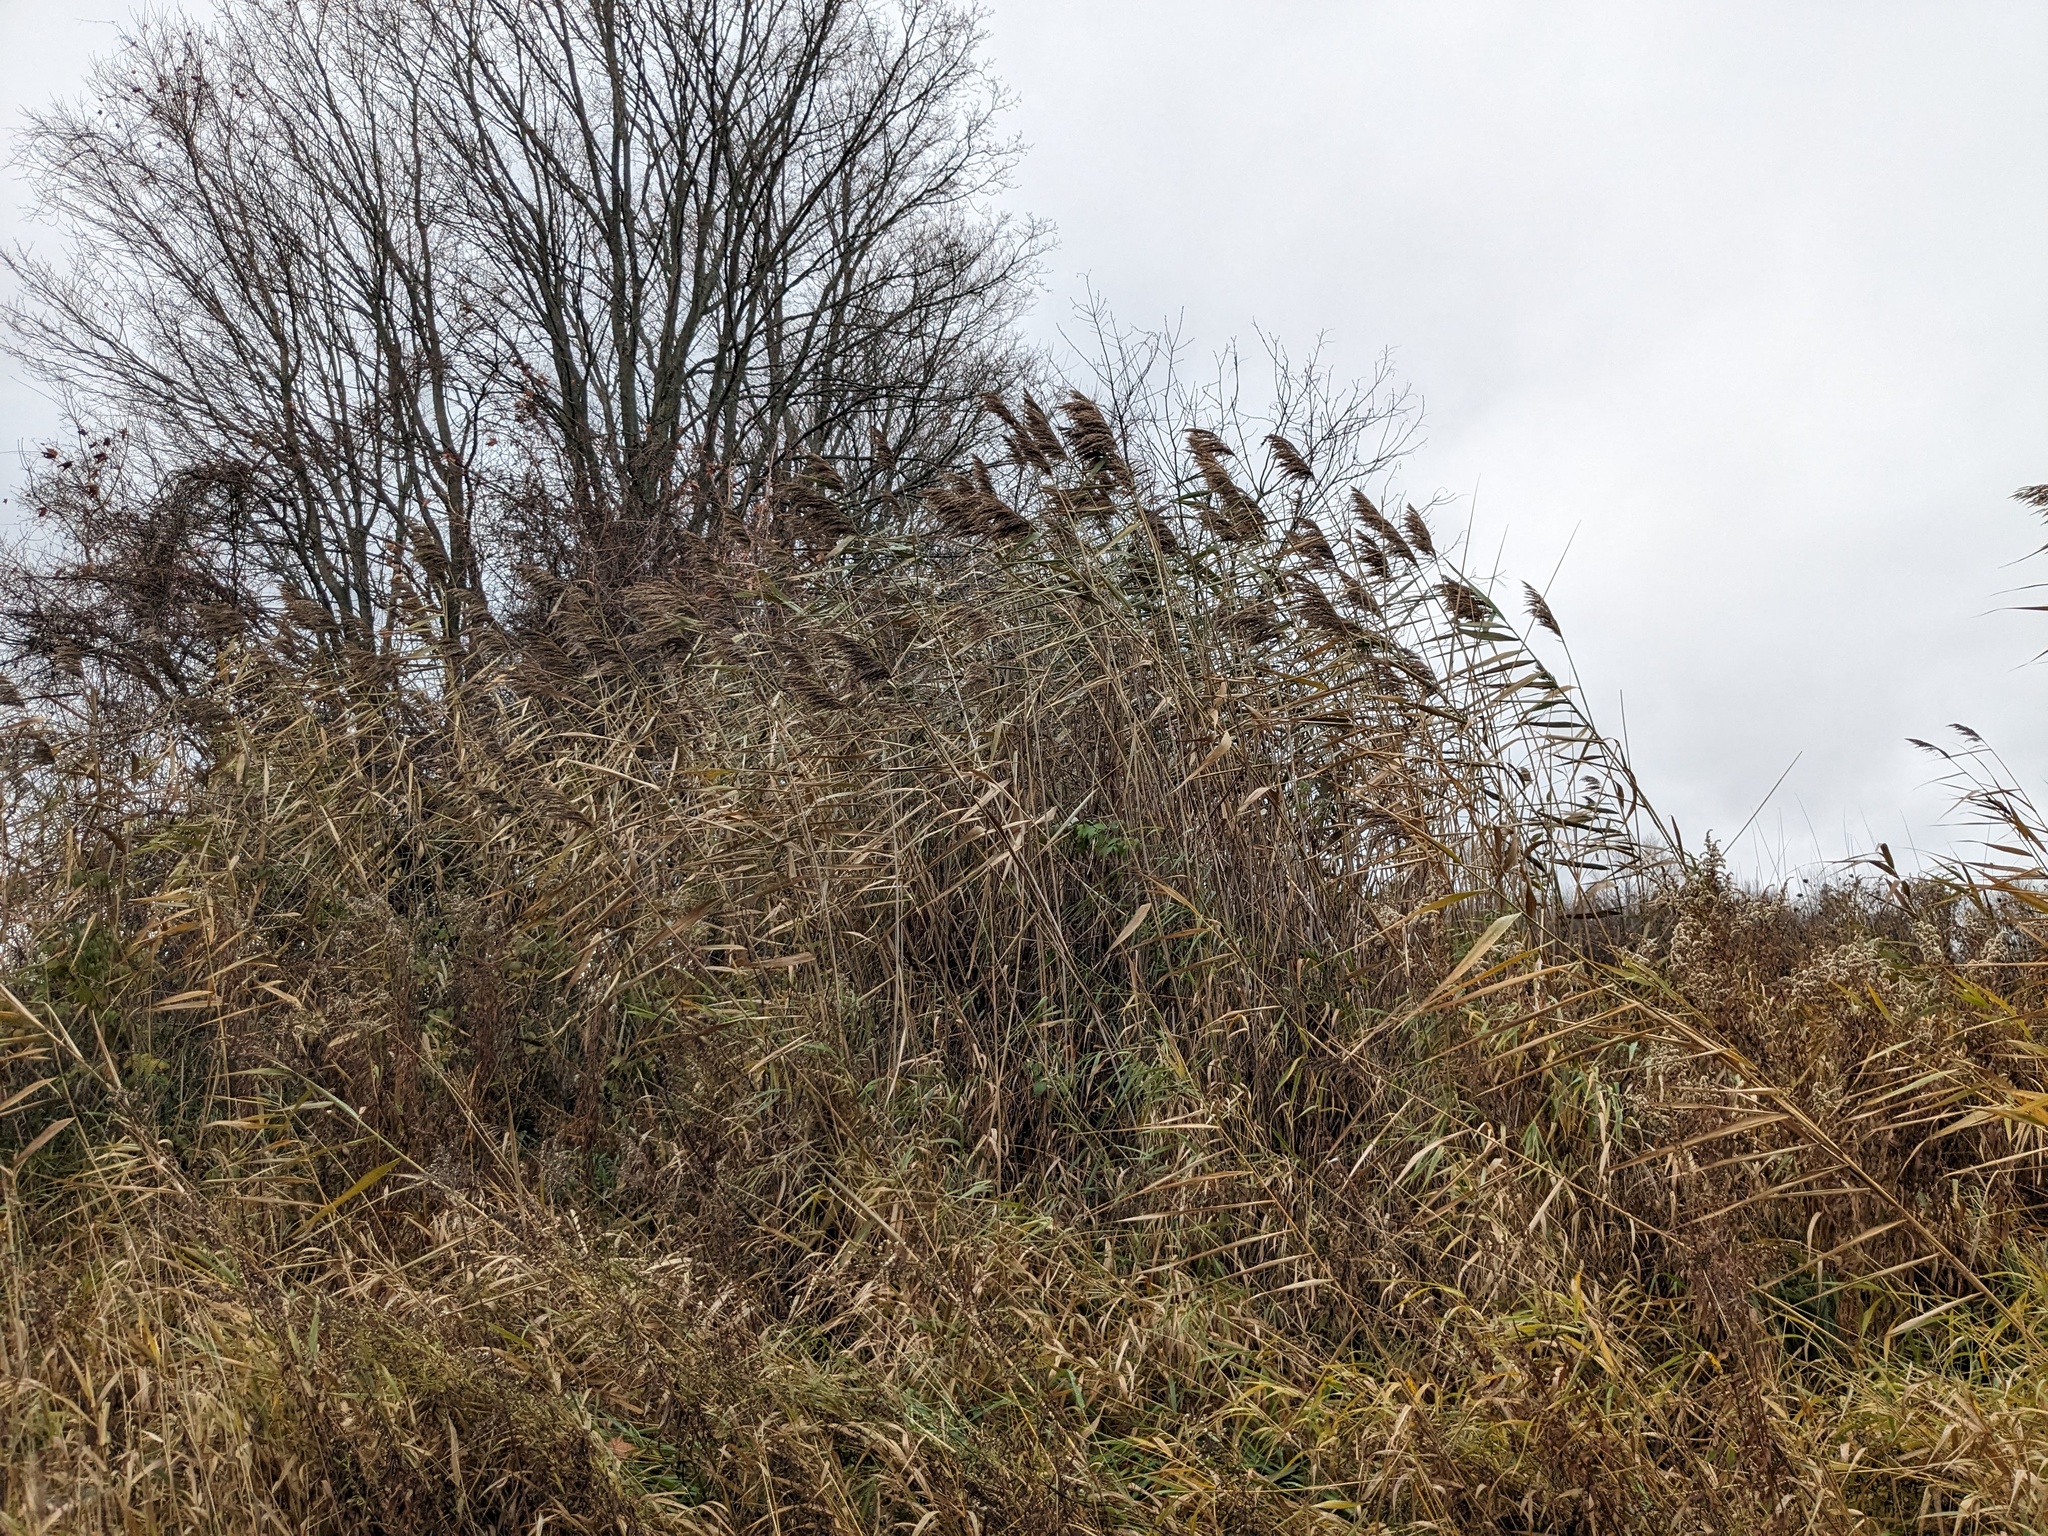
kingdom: Plantae
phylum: Tracheophyta
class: Liliopsida
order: Poales
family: Poaceae
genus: Phragmites
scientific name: Phragmites australis
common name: Common reed
